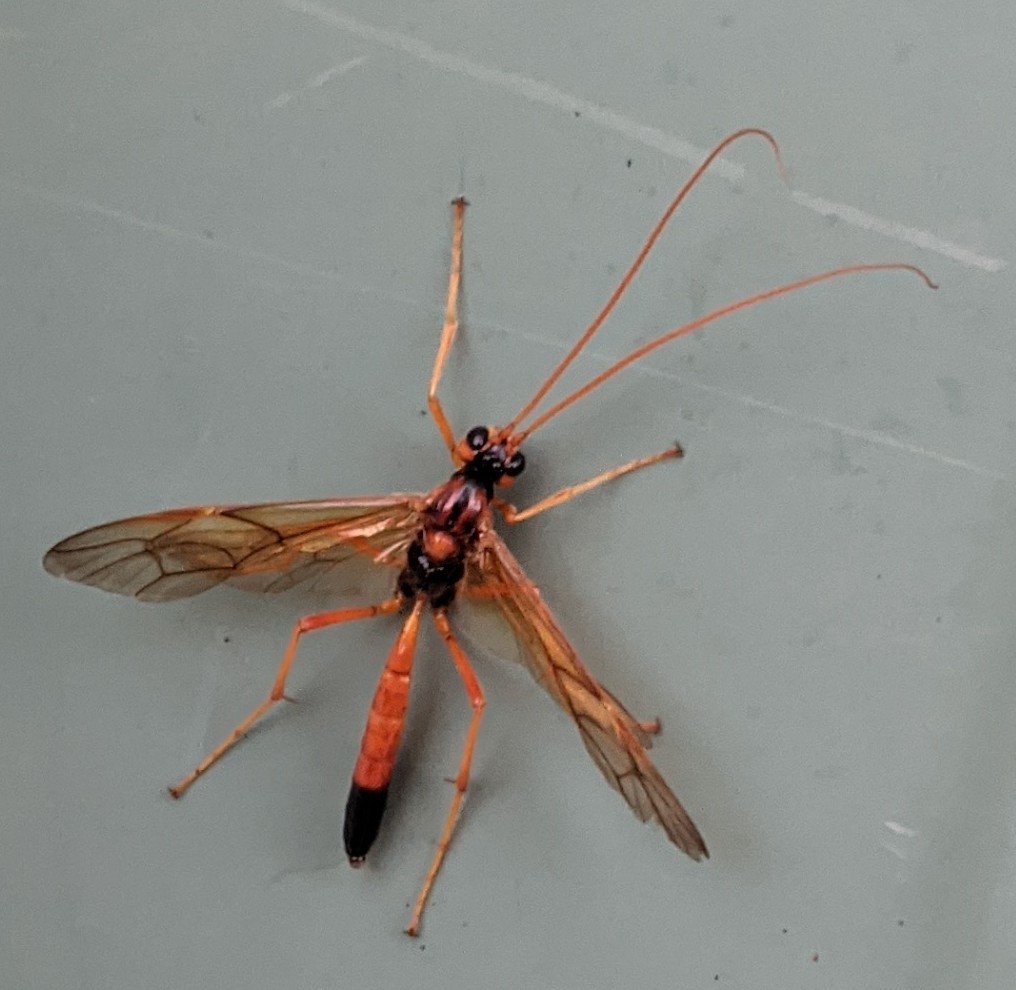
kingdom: Animalia
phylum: Arthropoda
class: Insecta
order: Hymenoptera
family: Ichneumonidae
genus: Opheltes
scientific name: Opheltes glaucopterus
